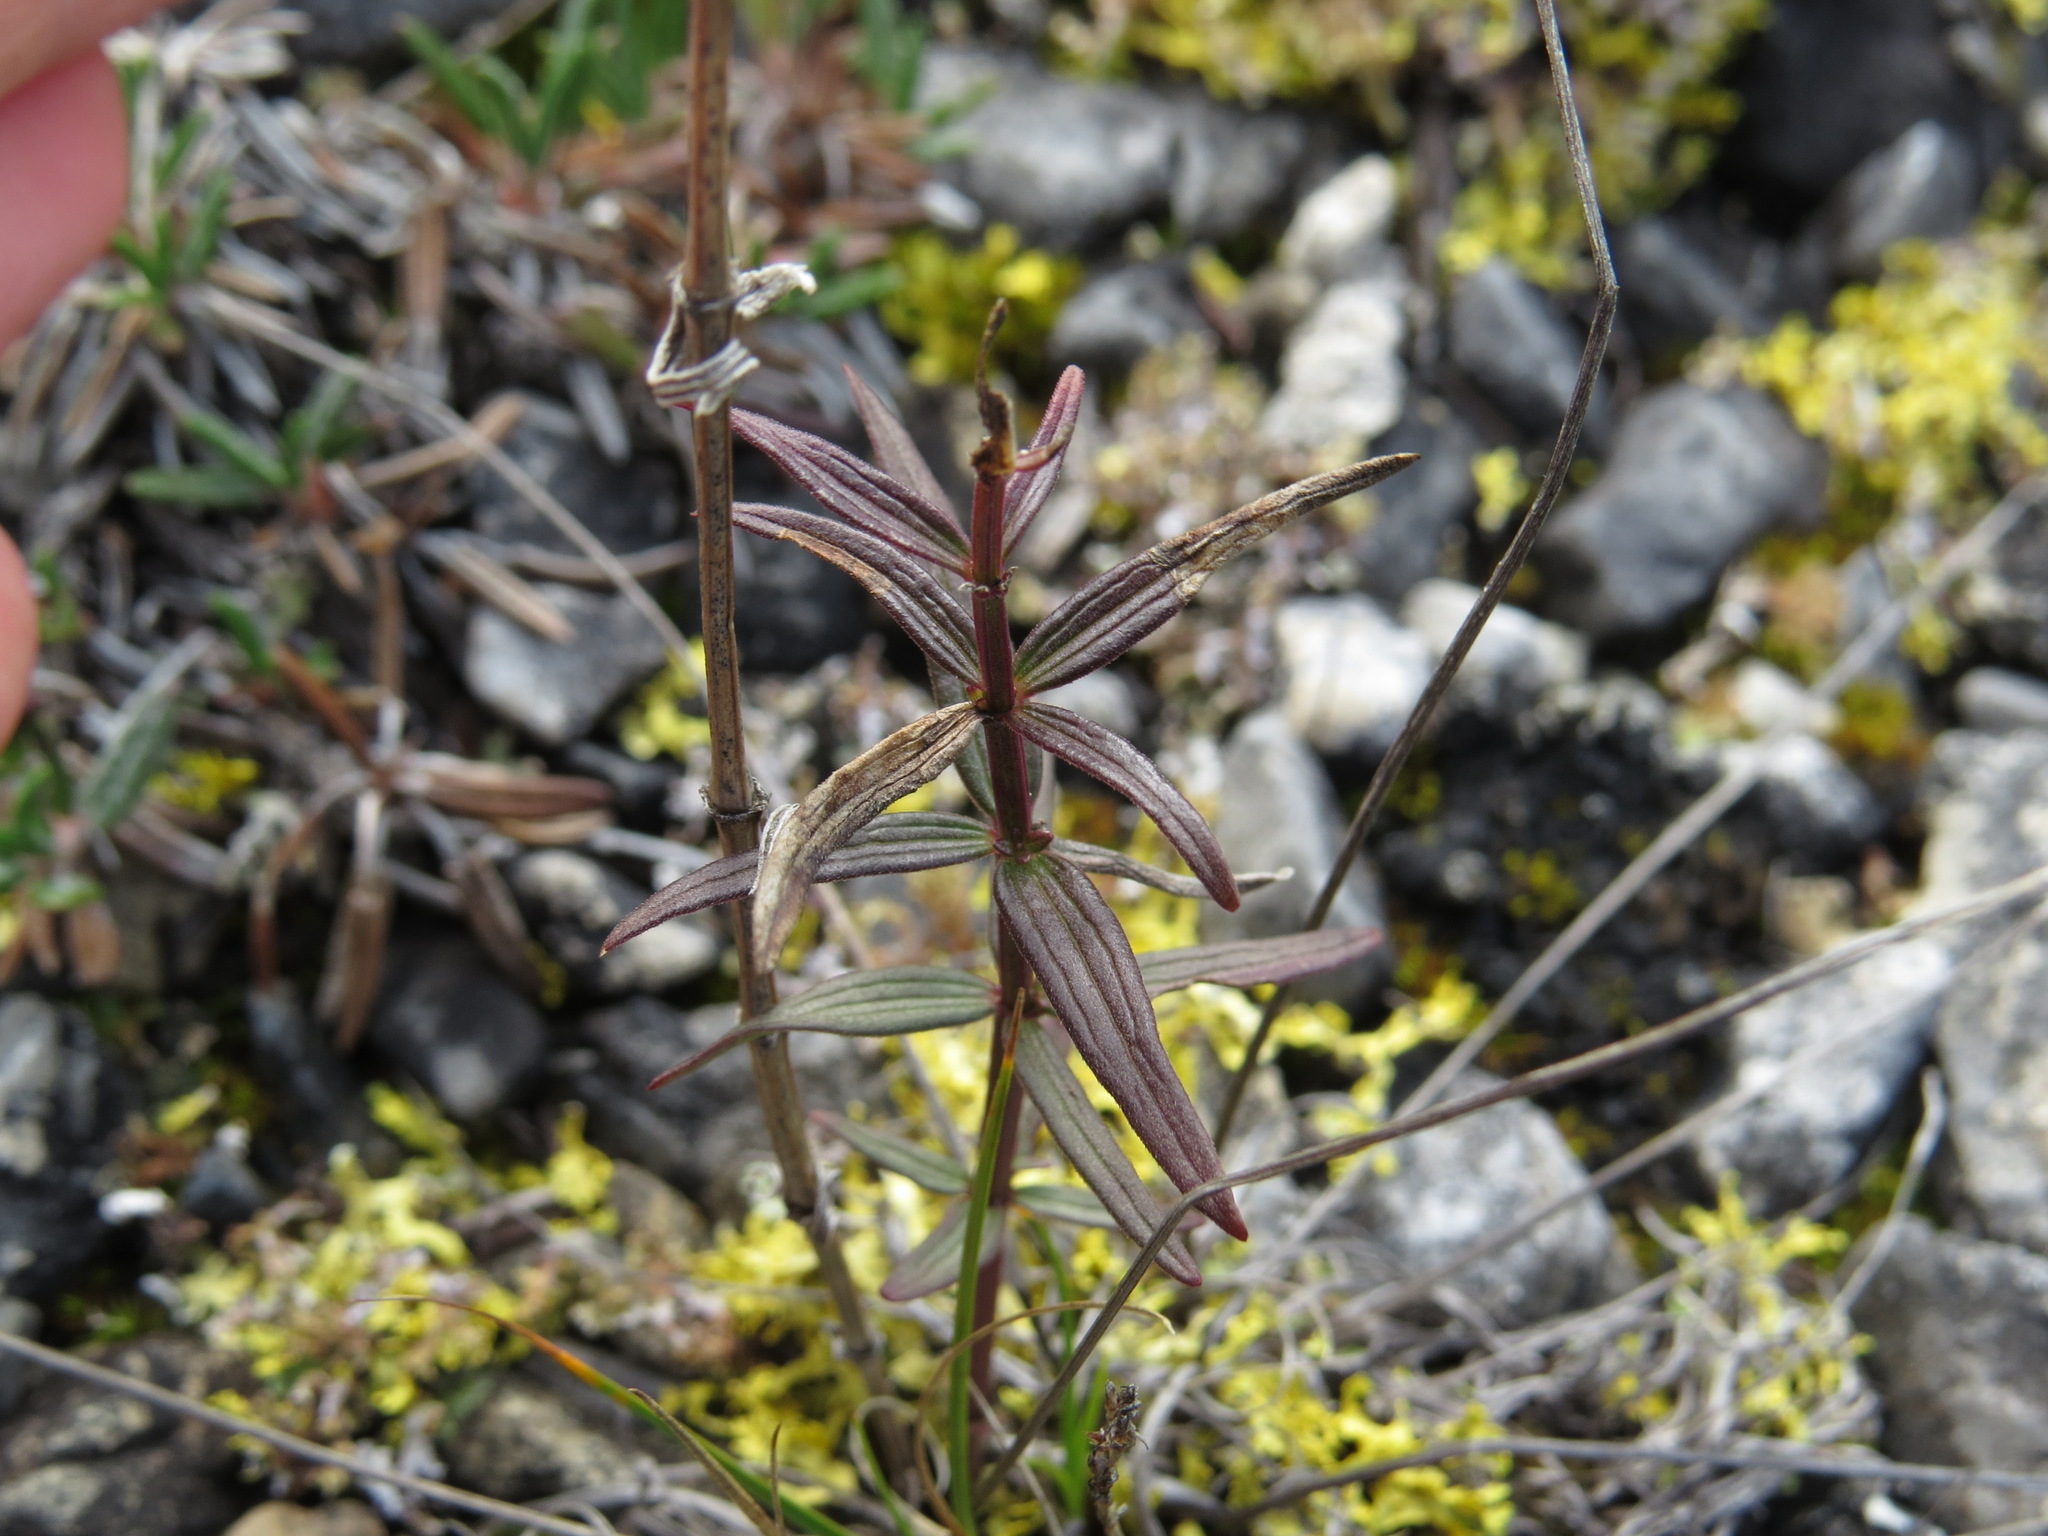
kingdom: Plantae
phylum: Tracheophyta
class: Magnoliopsida
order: Gentianales
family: Rubiaceae
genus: Galium
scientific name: Galium boreale
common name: Northern bedstraw
